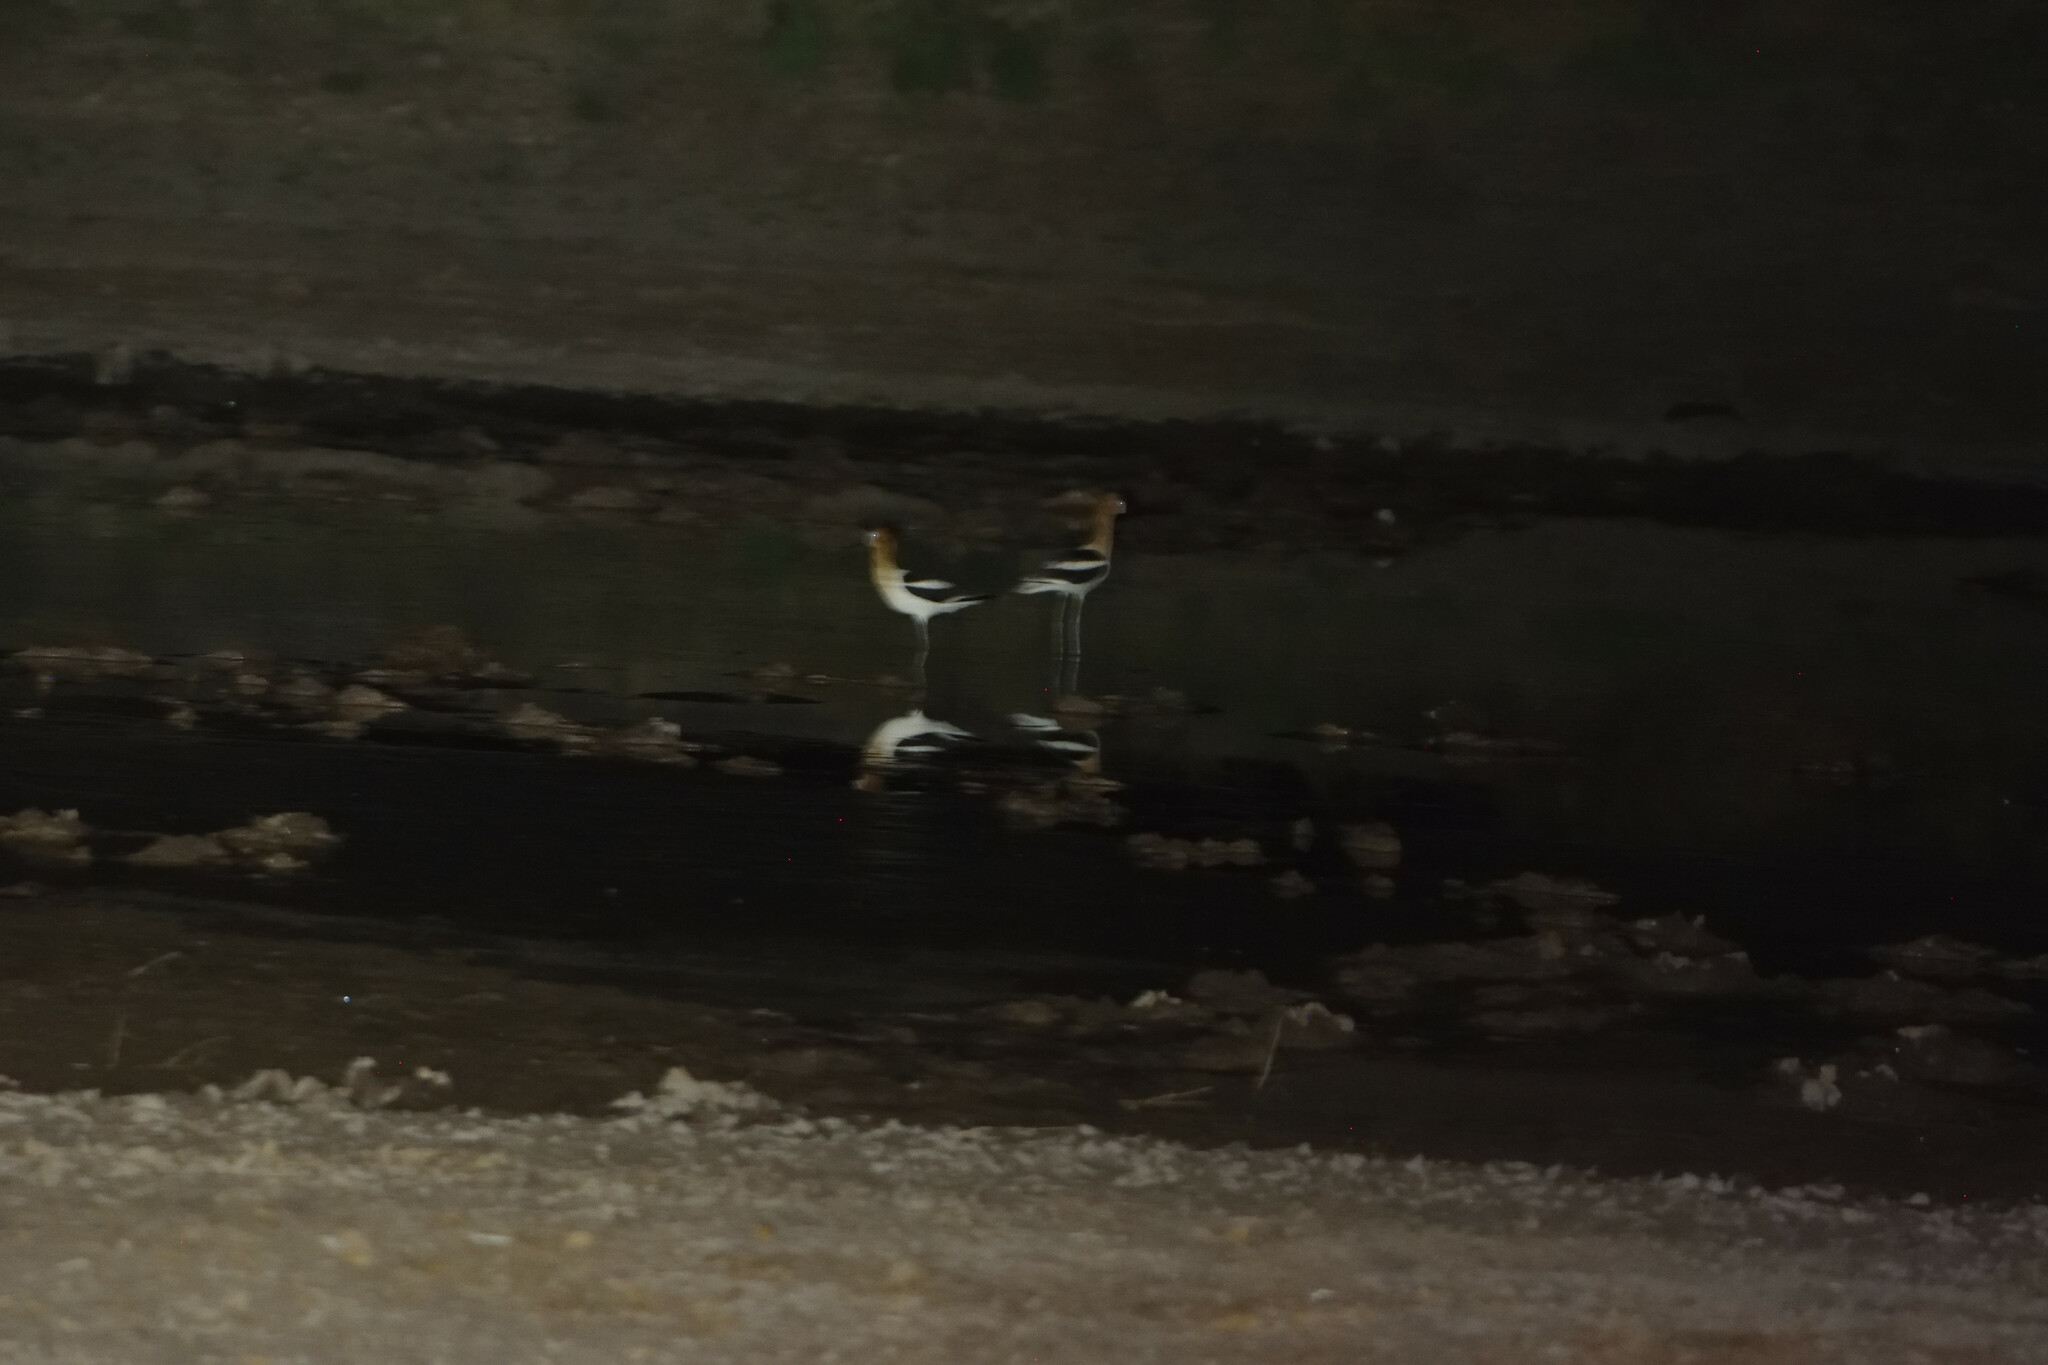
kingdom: Animalia
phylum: Chordata
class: Aves
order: Charadriiformes
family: Recurvirostridae
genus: Recurvirostra
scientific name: Recurvirostra americana
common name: American avocet
